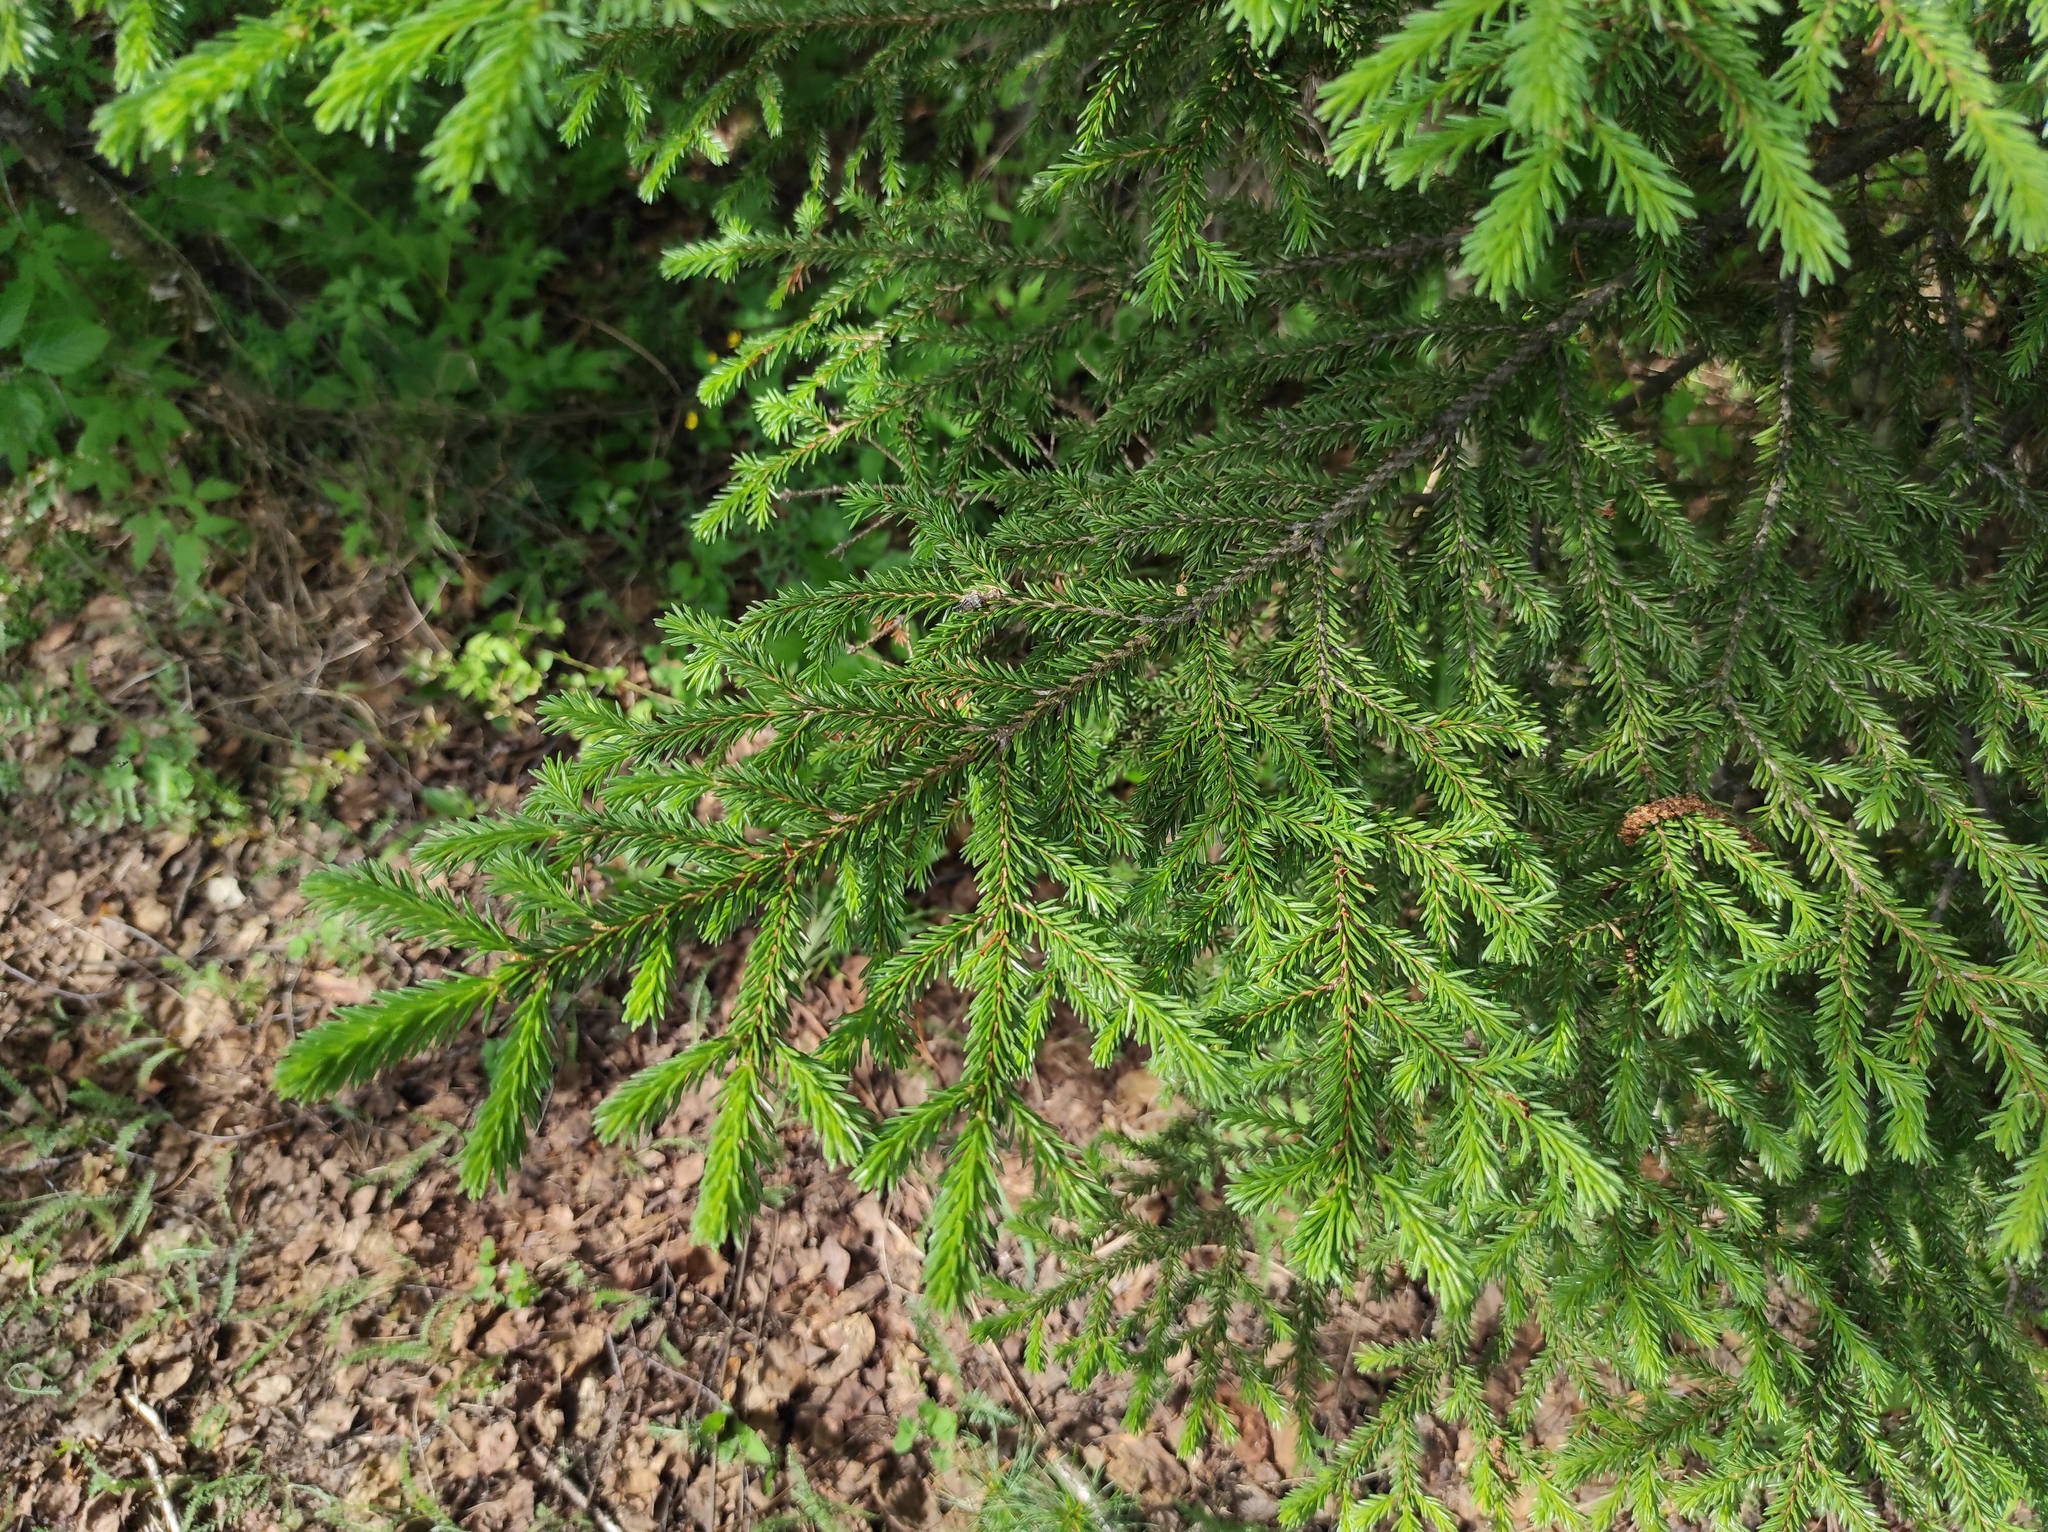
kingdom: Plantae
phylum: Tracheophyta
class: Pinopsida
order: Pinales
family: Pinaceae
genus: Picea
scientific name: Picea obovata
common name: Siberian spruce
